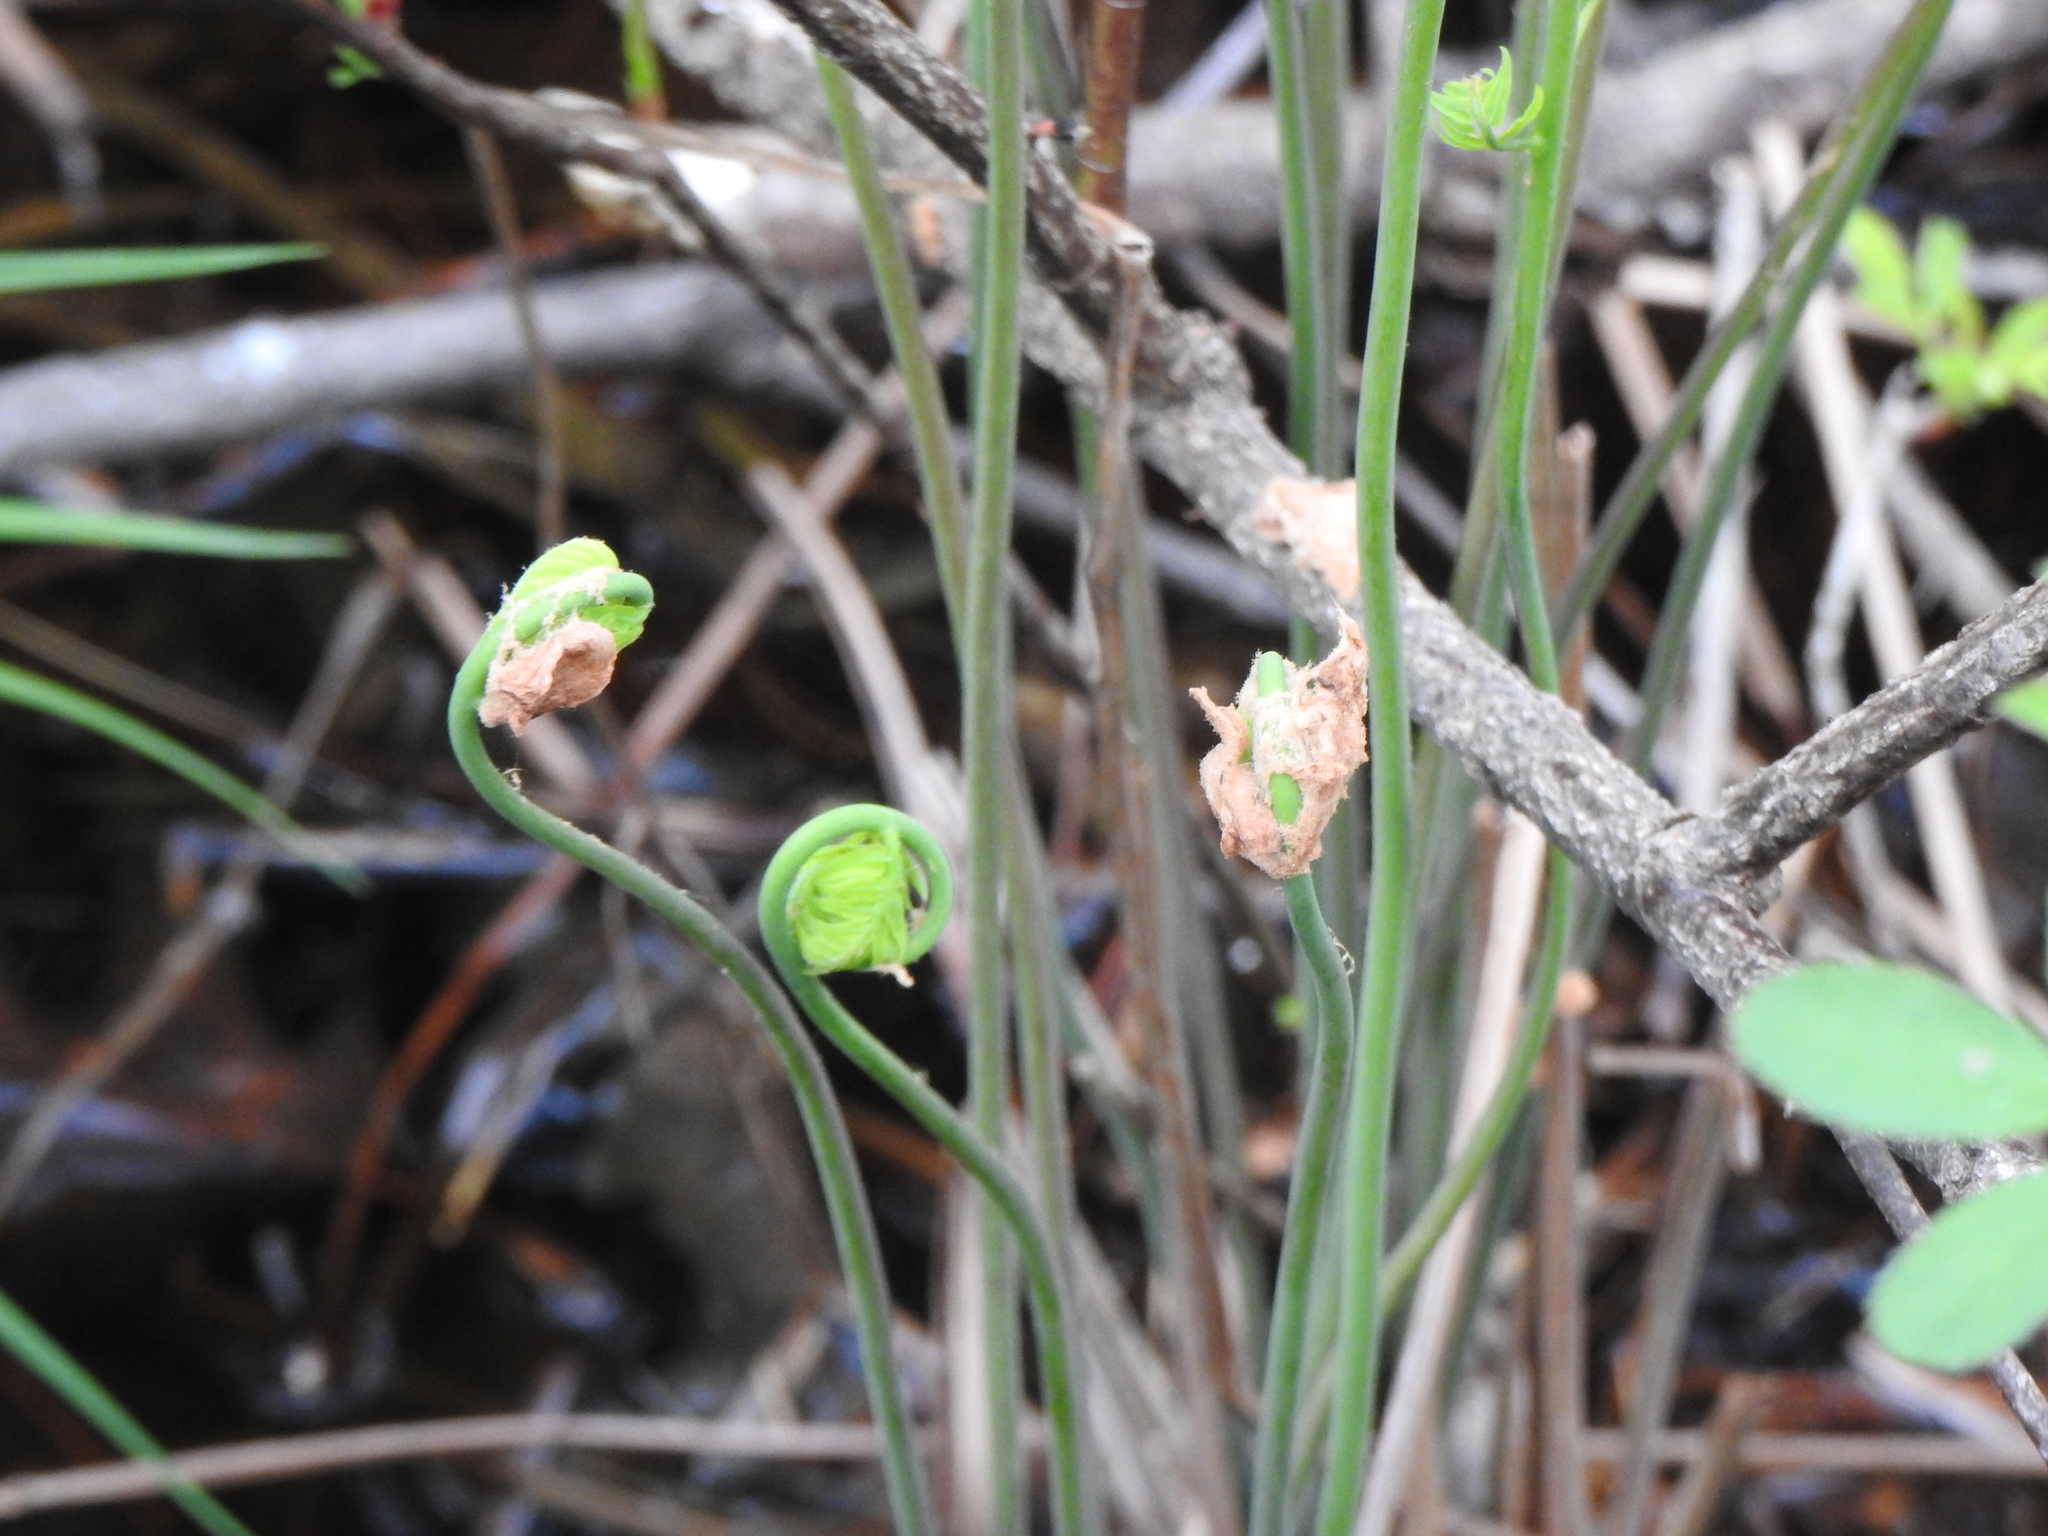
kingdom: Plantae
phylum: Tracheophyta
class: Polypodiopsida
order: Osmundales
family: Osmundaceae
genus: Osmunda
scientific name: Osmunda spectabilis
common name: American royal fern
